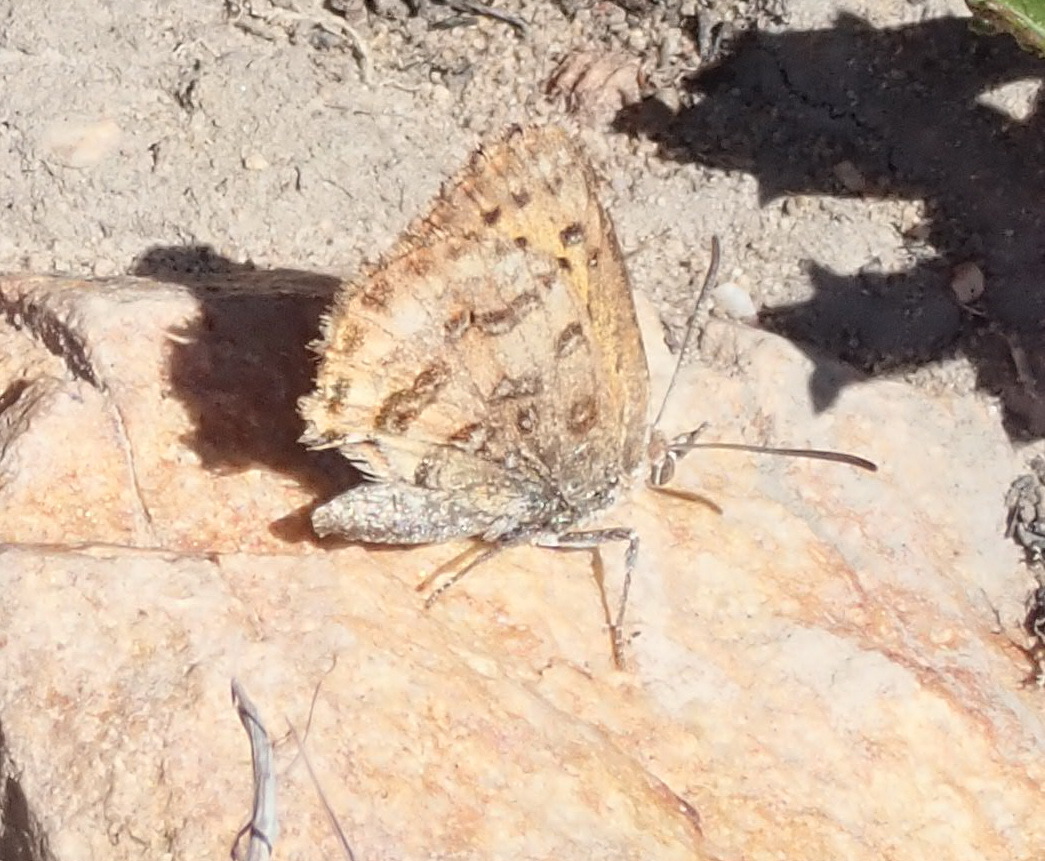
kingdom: Animalia
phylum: Arthropoda
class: Insecta
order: Lepidoptera
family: Lycaenidae
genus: Aloeides
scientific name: Aloeides pierus
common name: Dull copper
